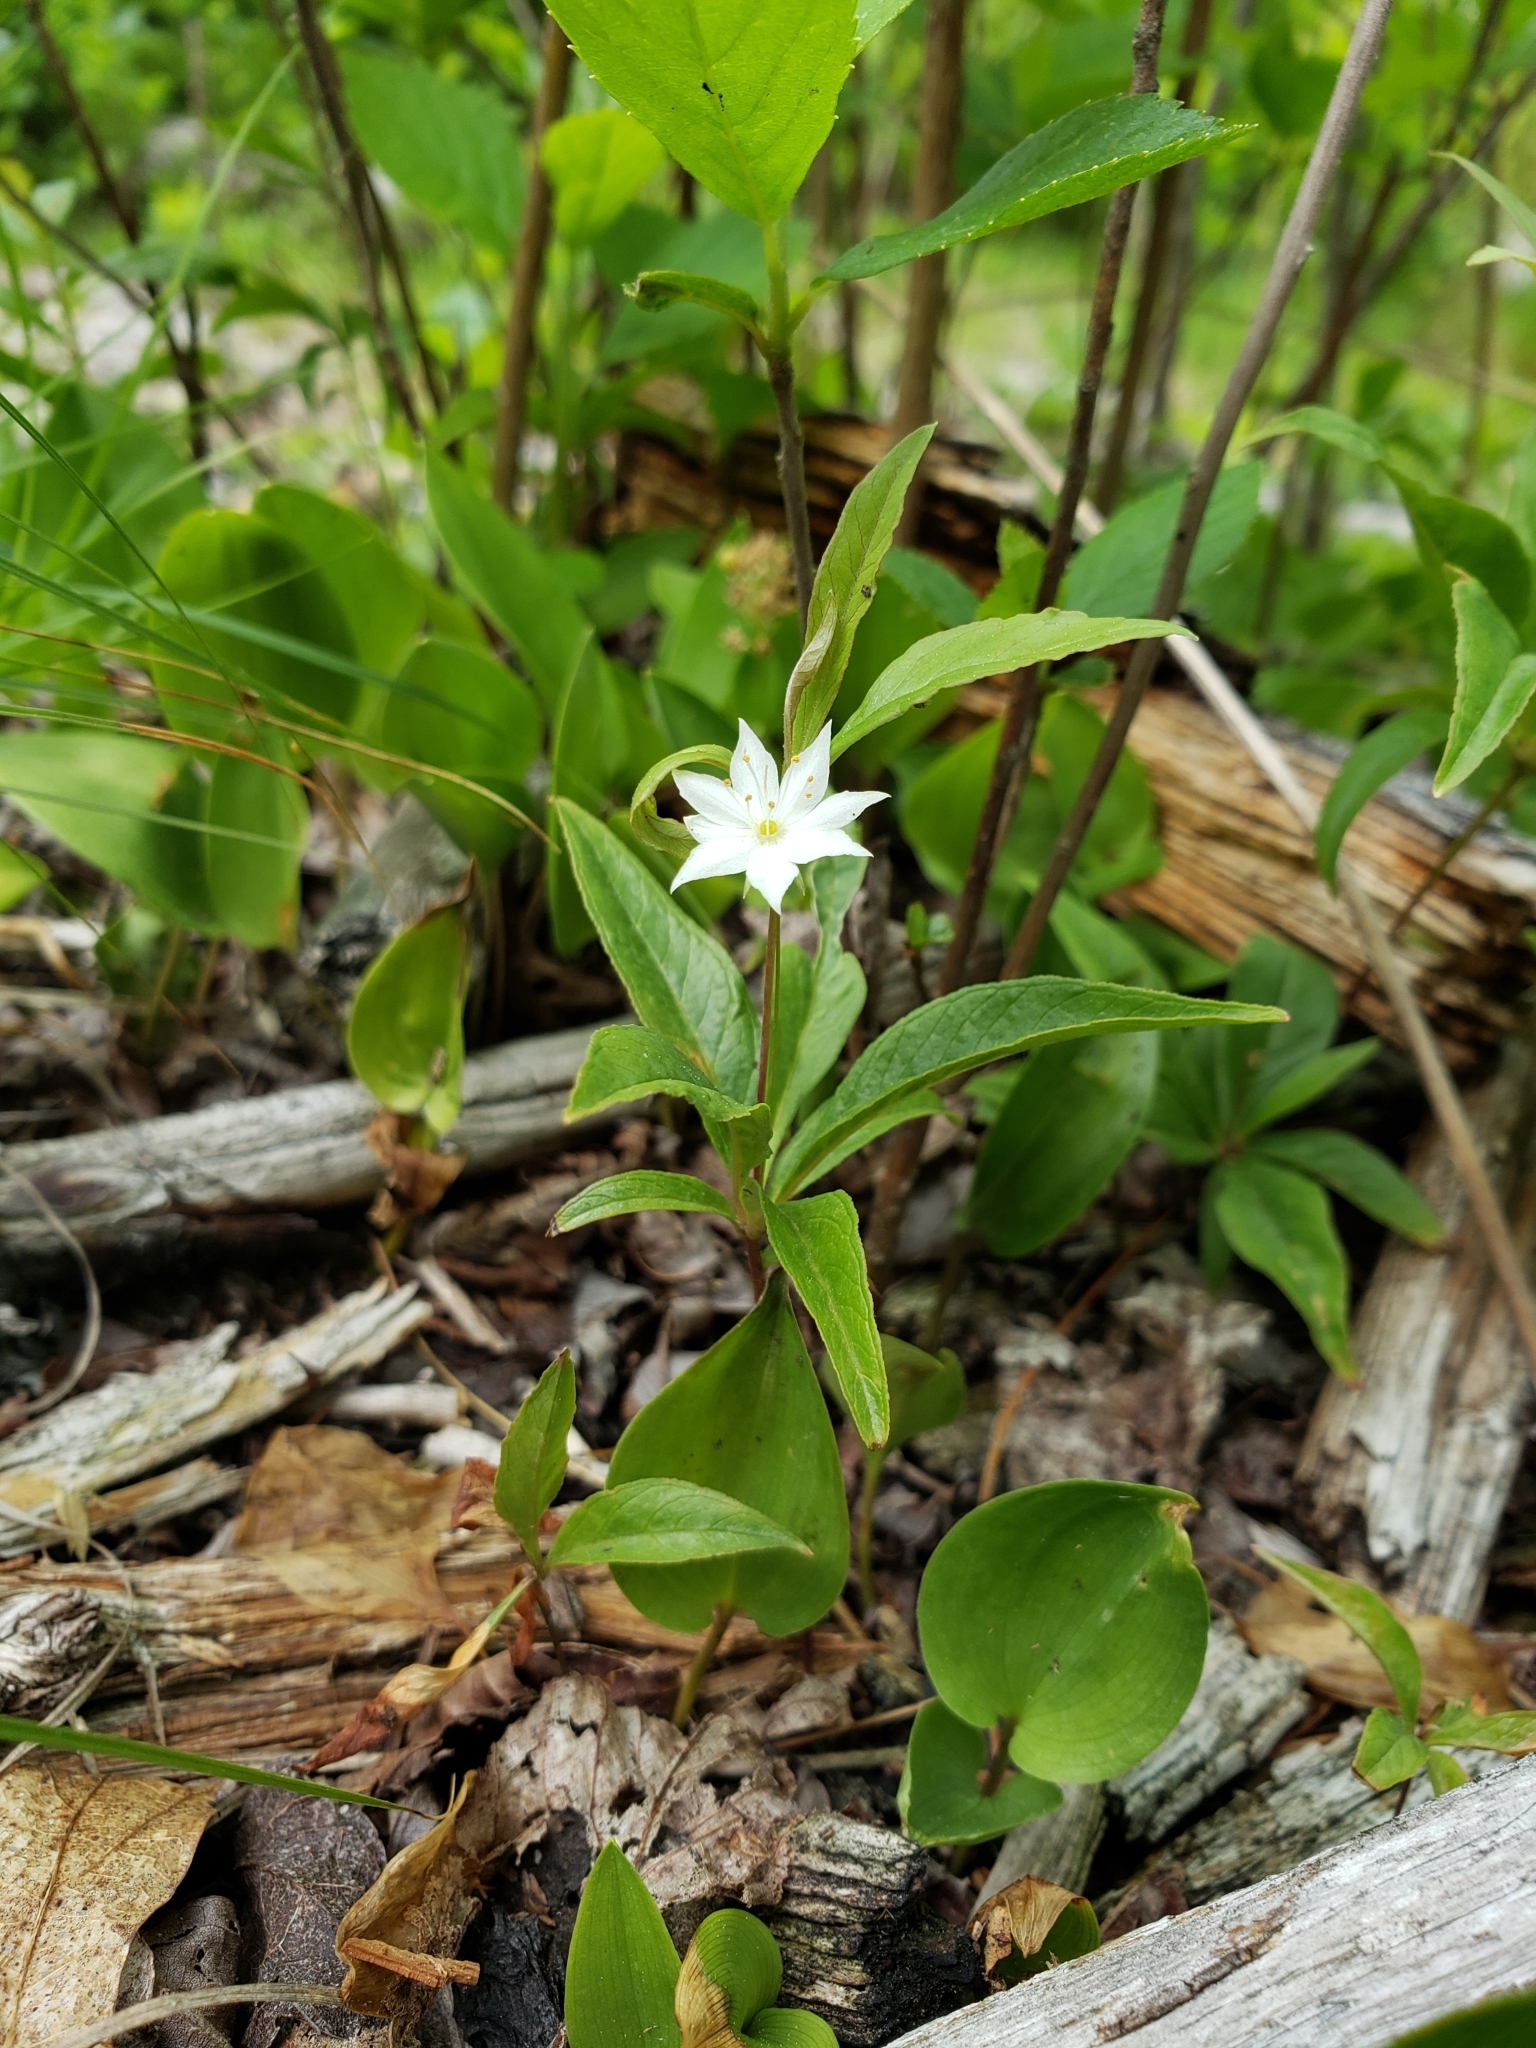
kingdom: Plantae
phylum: Tracheophyta
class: Magnoliopsida
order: Ericales
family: Primulaceae
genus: Lysimachia
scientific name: Lysimachia borealis
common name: American starflower
